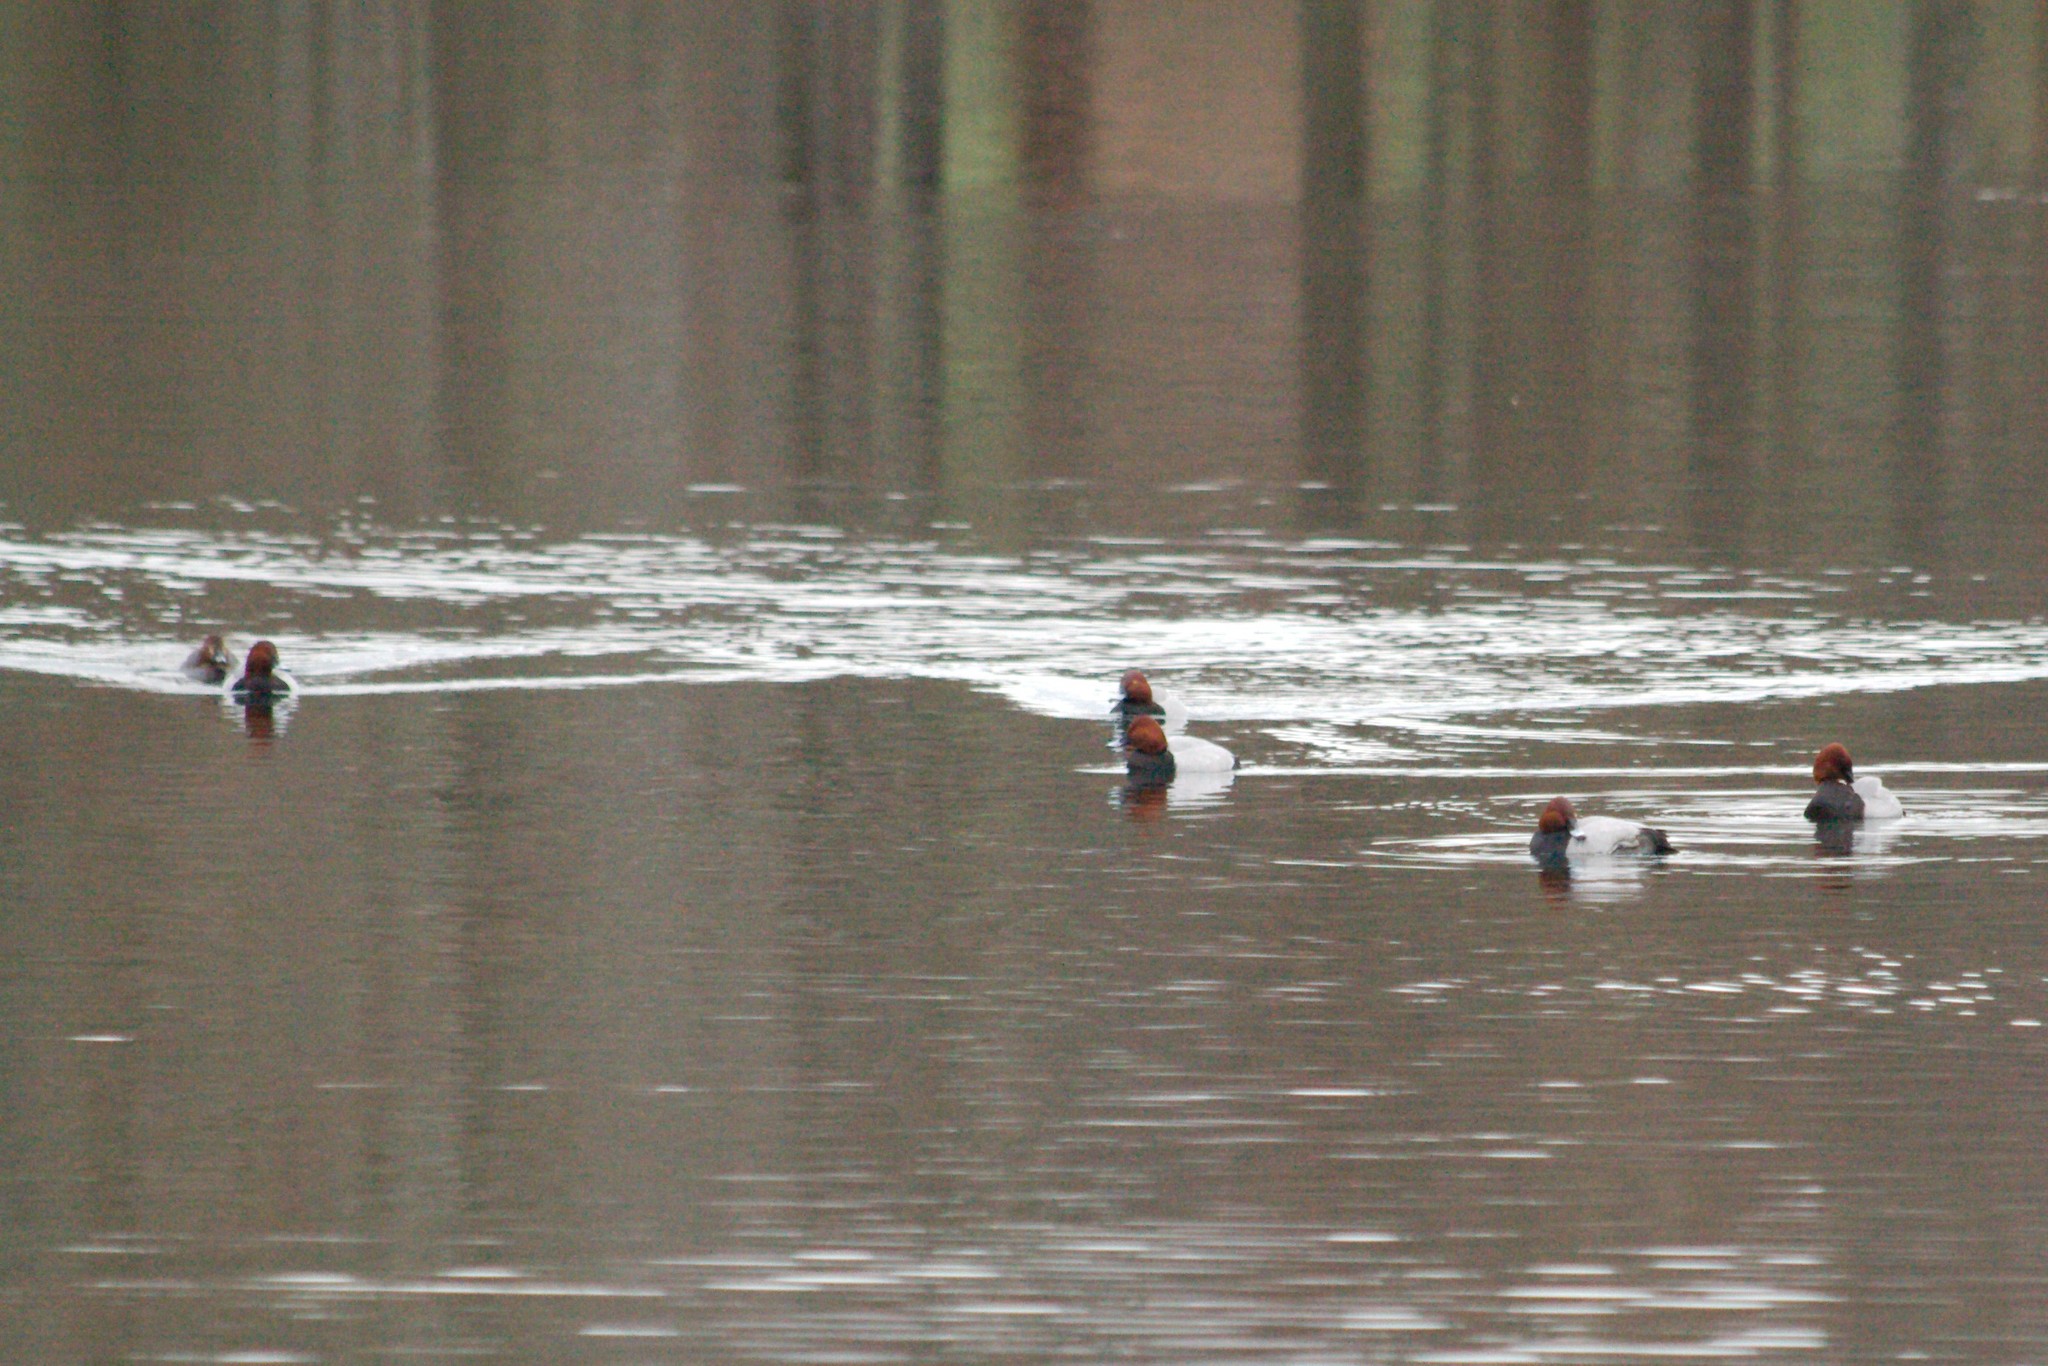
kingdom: Animalia
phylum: Chordata
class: Aves
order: Anseriformes
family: Anatidae
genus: Aythya
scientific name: Aythya ferina
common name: Common pochard
